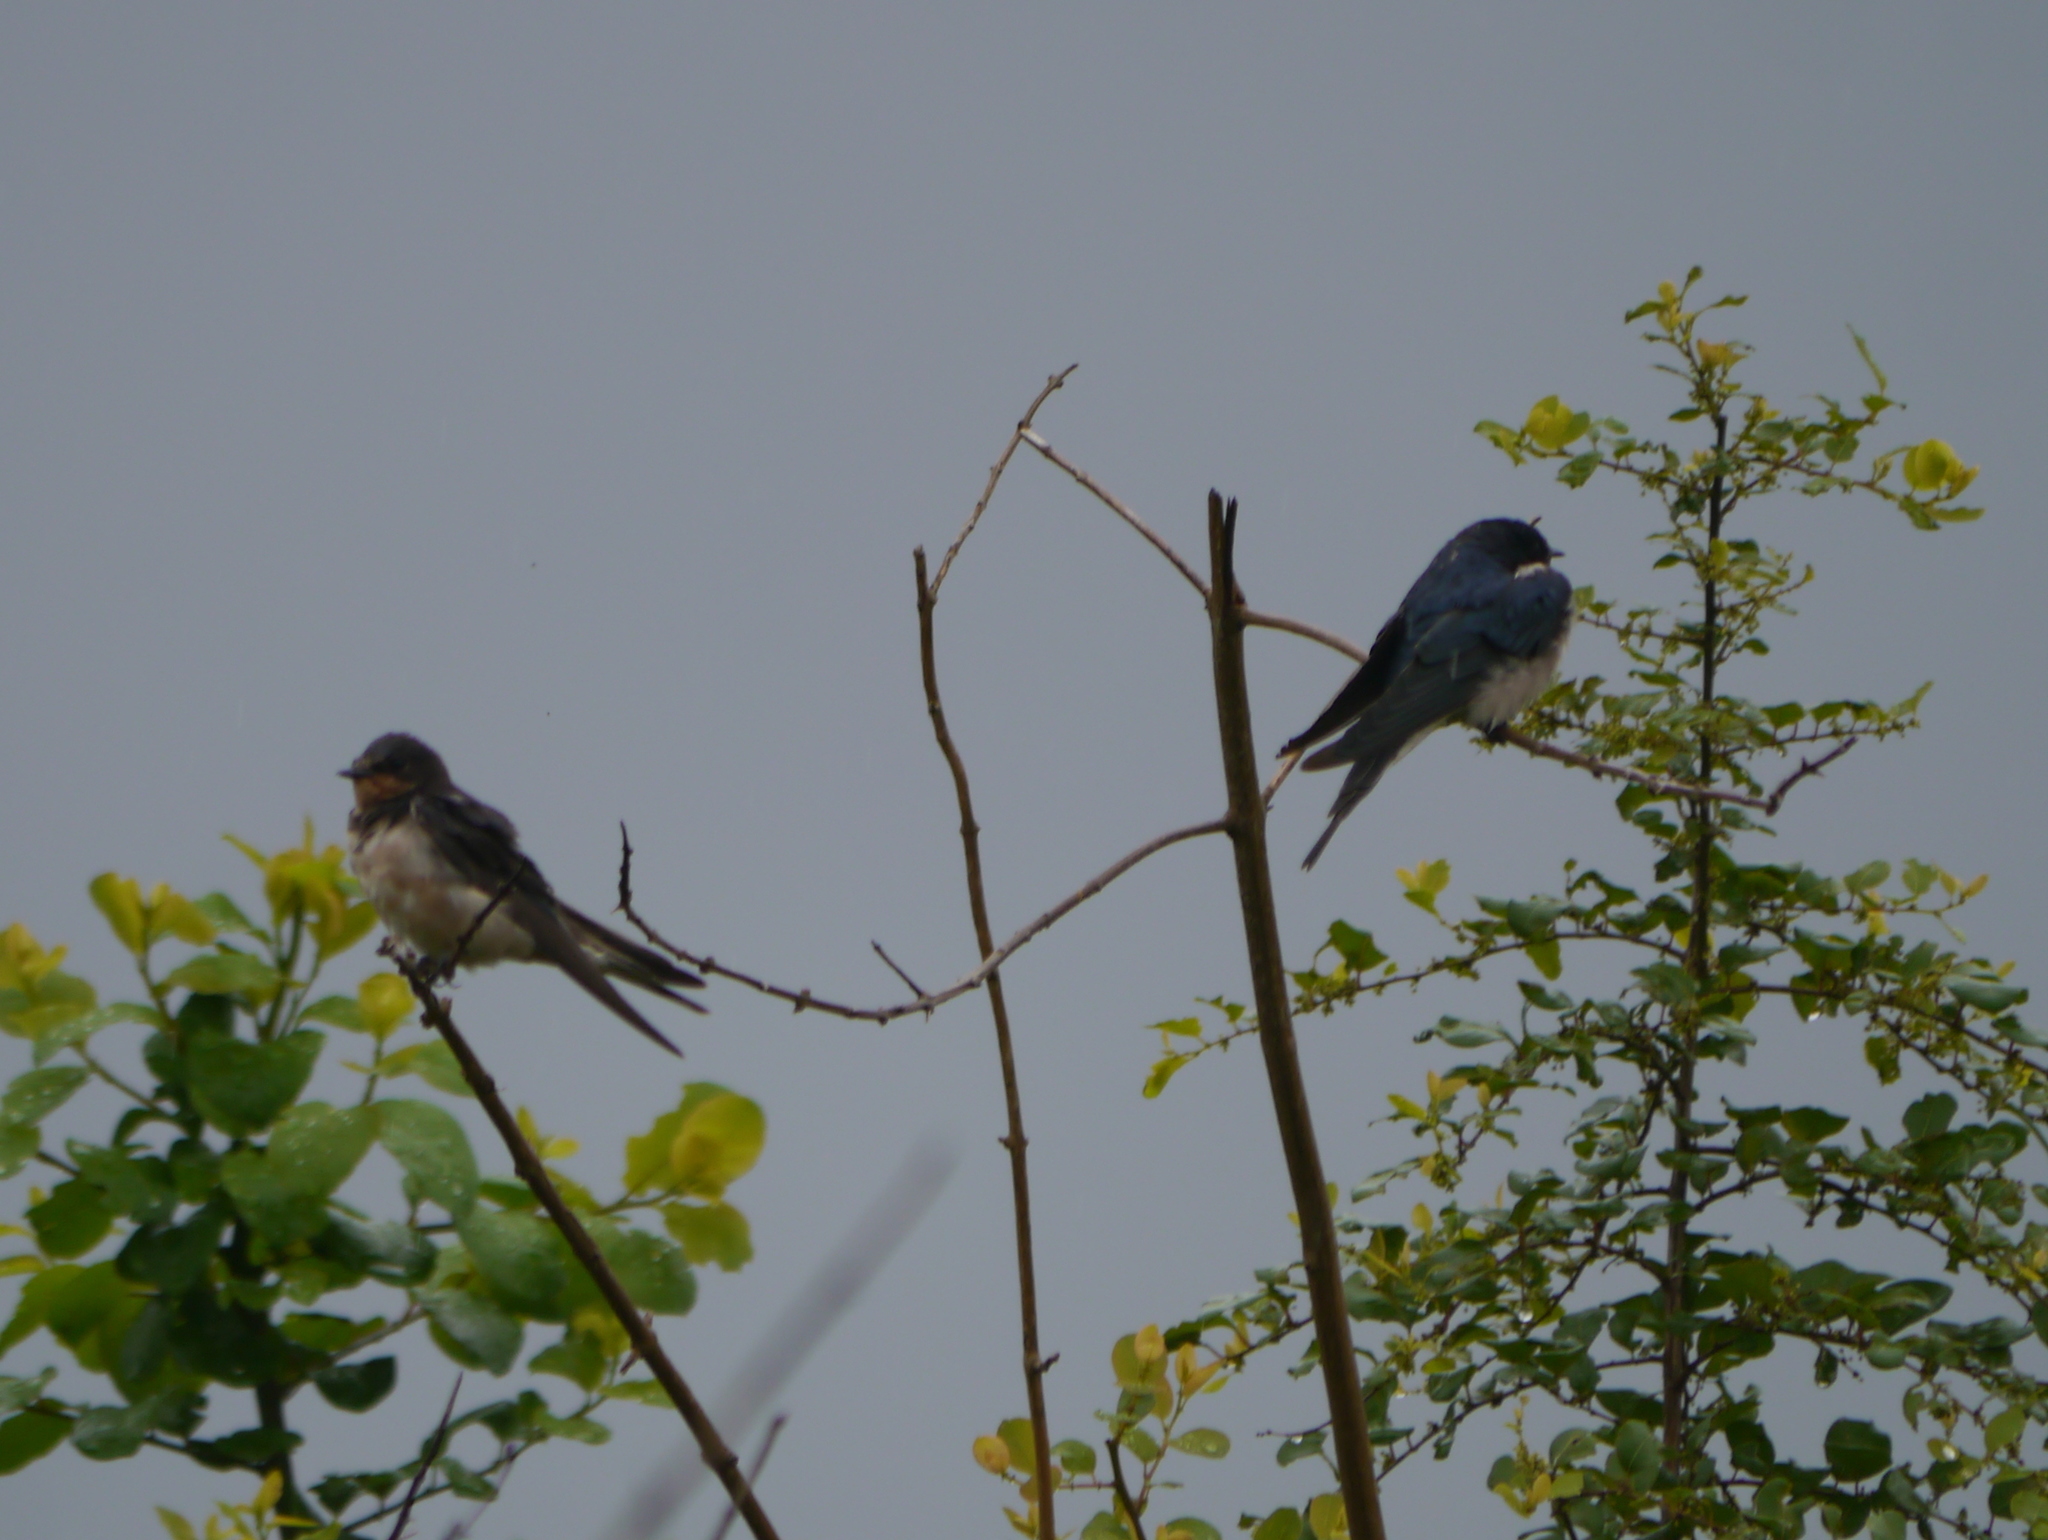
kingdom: Animalia
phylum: Chordata
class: Aves
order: Passeriformes
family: Hirundinidae
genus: Hirundo
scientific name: Hirundo rustica
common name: Barn swallow
